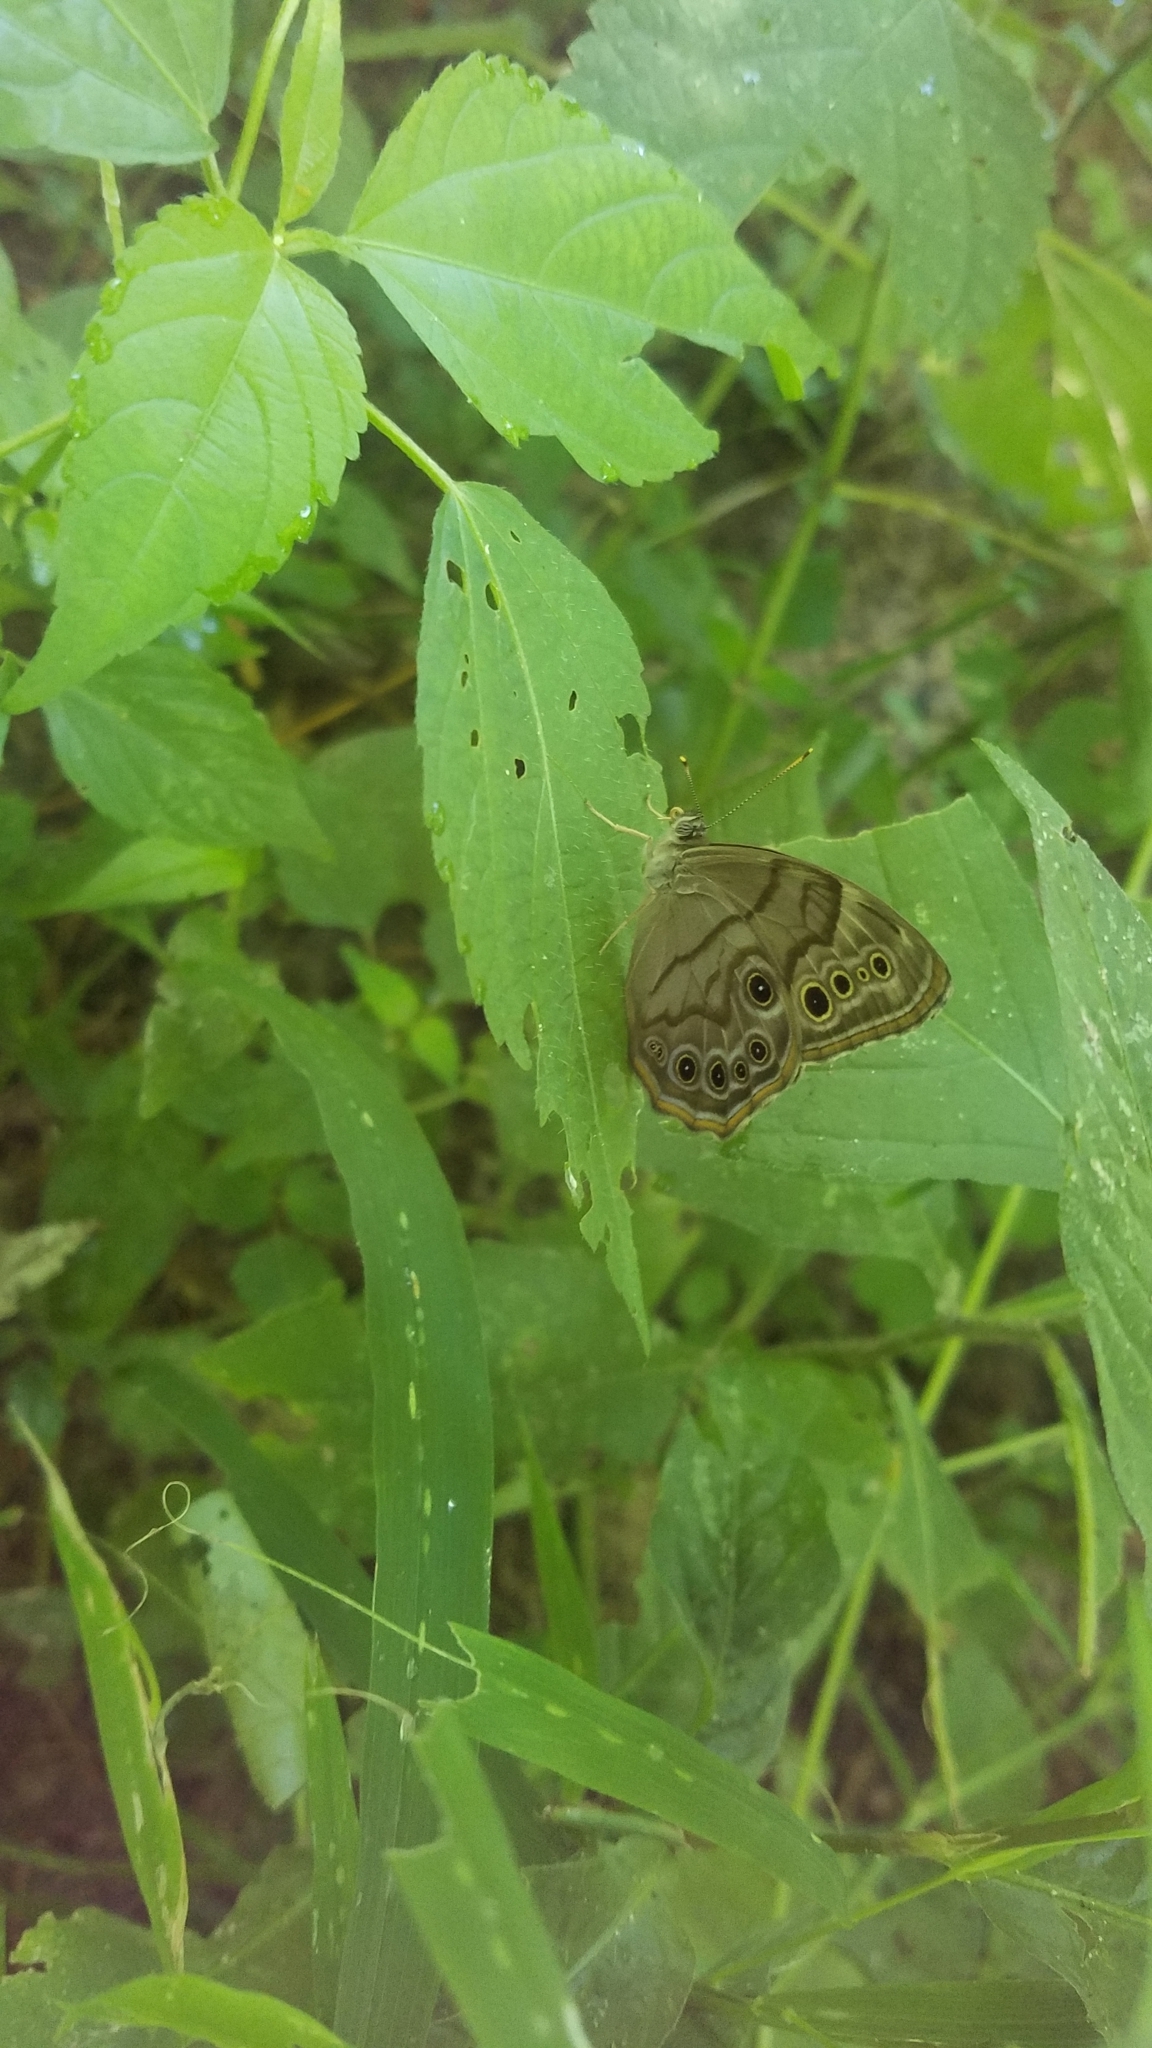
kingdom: Animalia
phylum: Arthropoda
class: Insecta
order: Lepidoptera
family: Nymphalidae
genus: Lethe
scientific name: Lethe anthedon
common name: Northern pearly-eye
